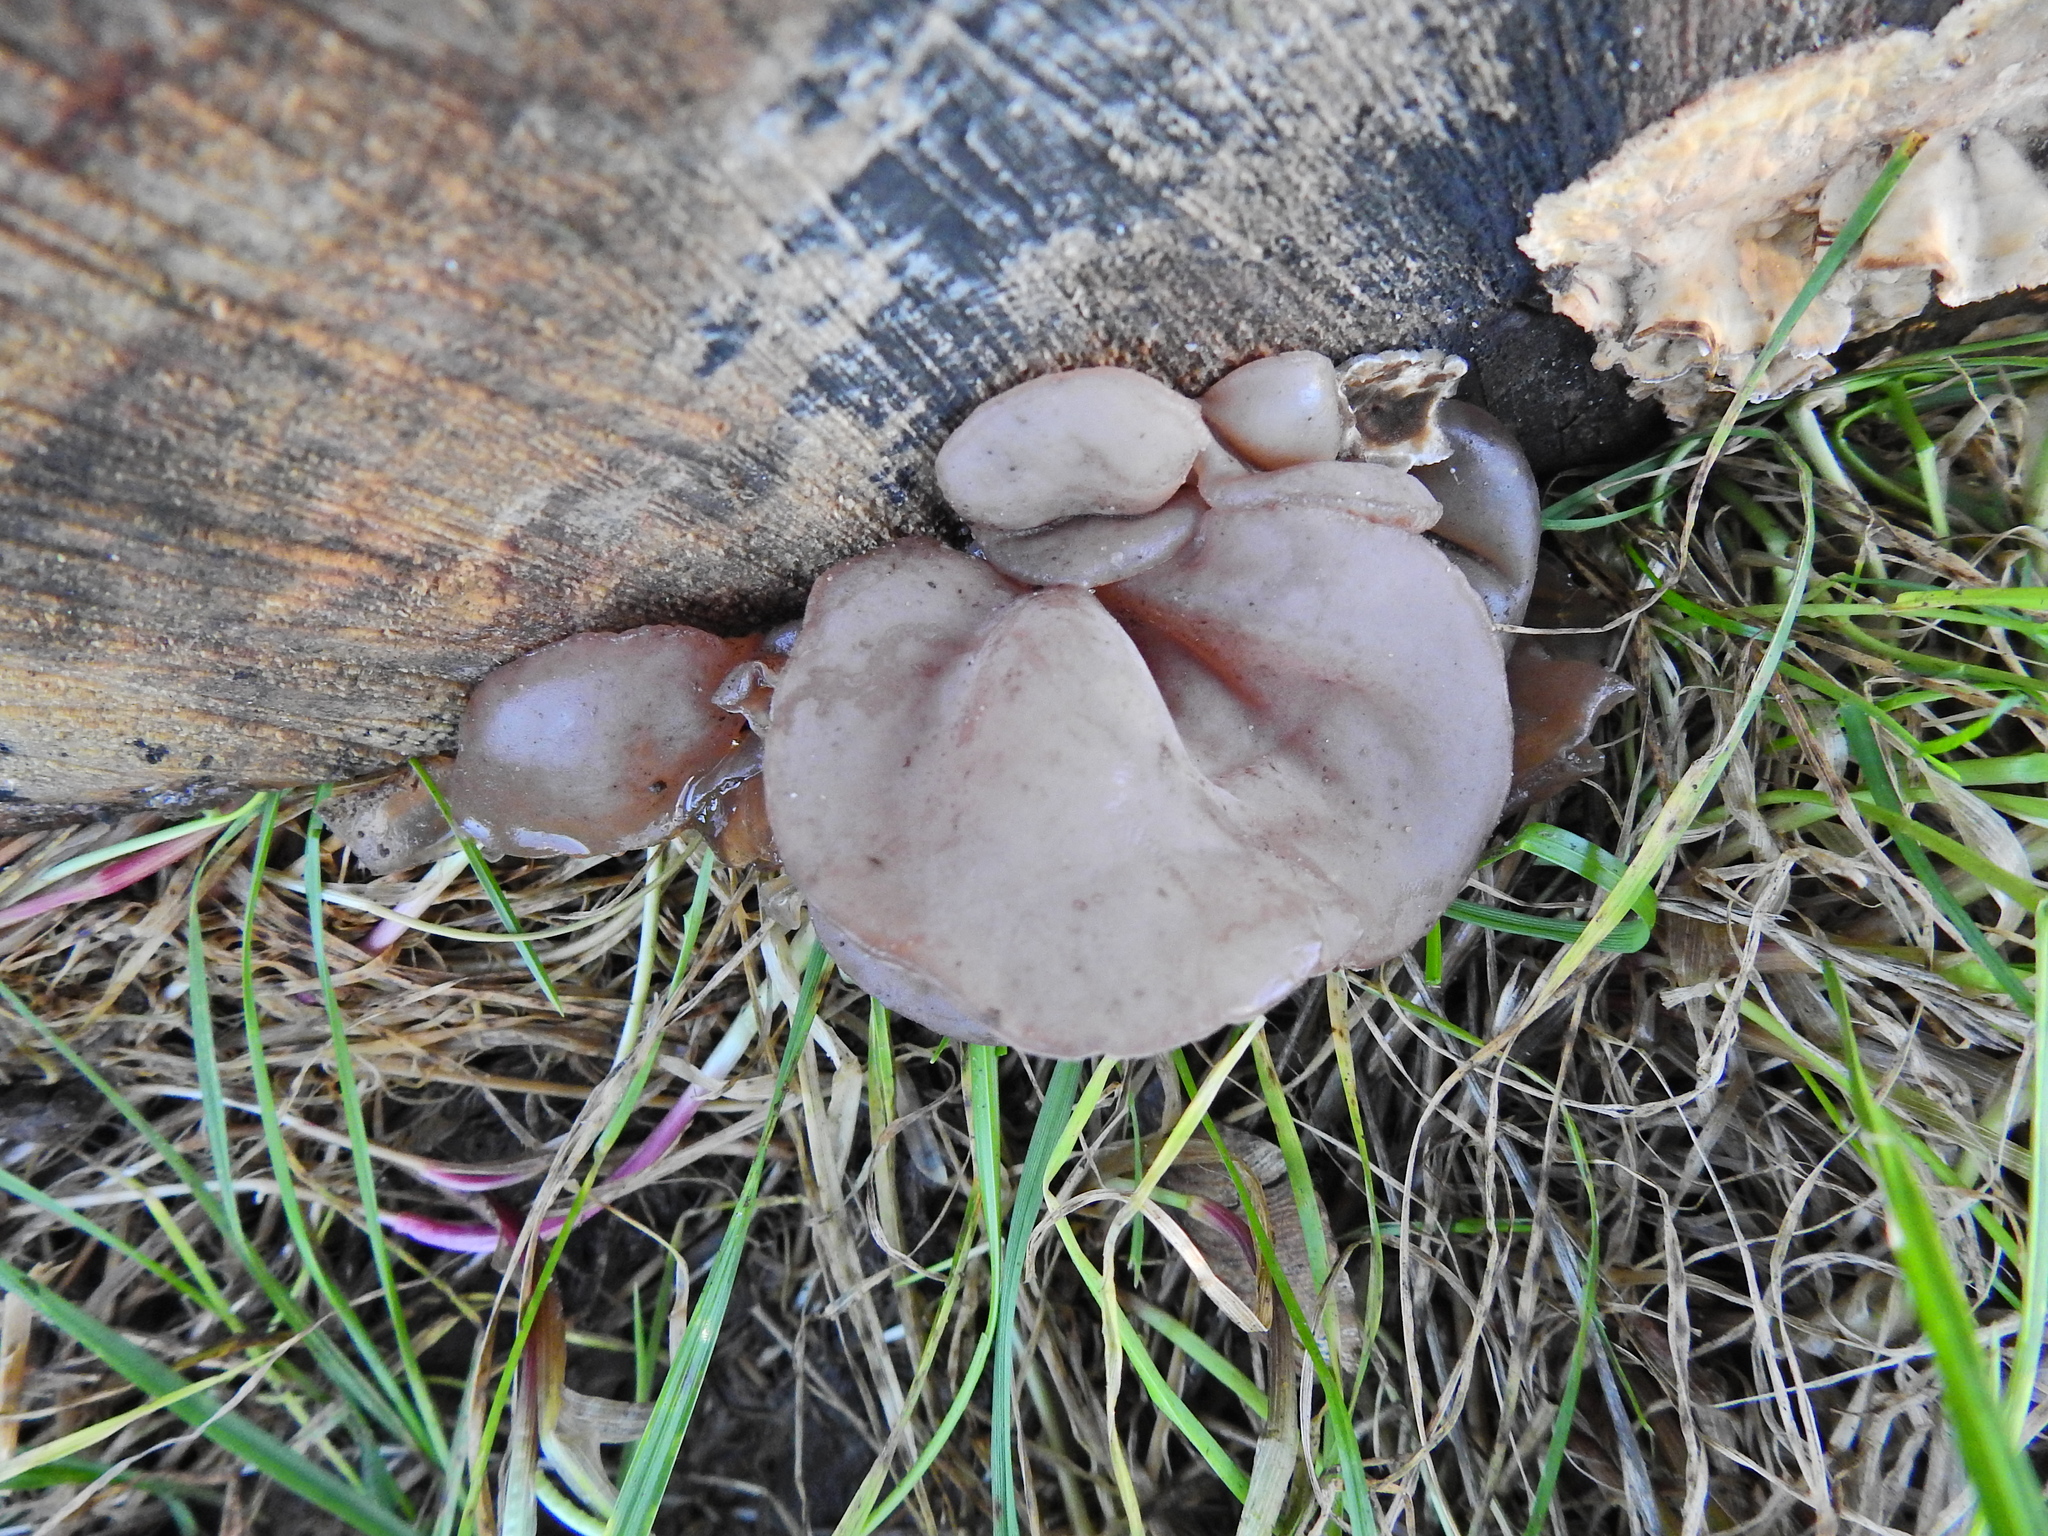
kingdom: Fungi
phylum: Basidiomycota
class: Agaricomycetes
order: Auriculariales
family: Auriculariaceae
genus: Auricularia
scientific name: Auricularia auricula-judae
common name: Jelly ear
